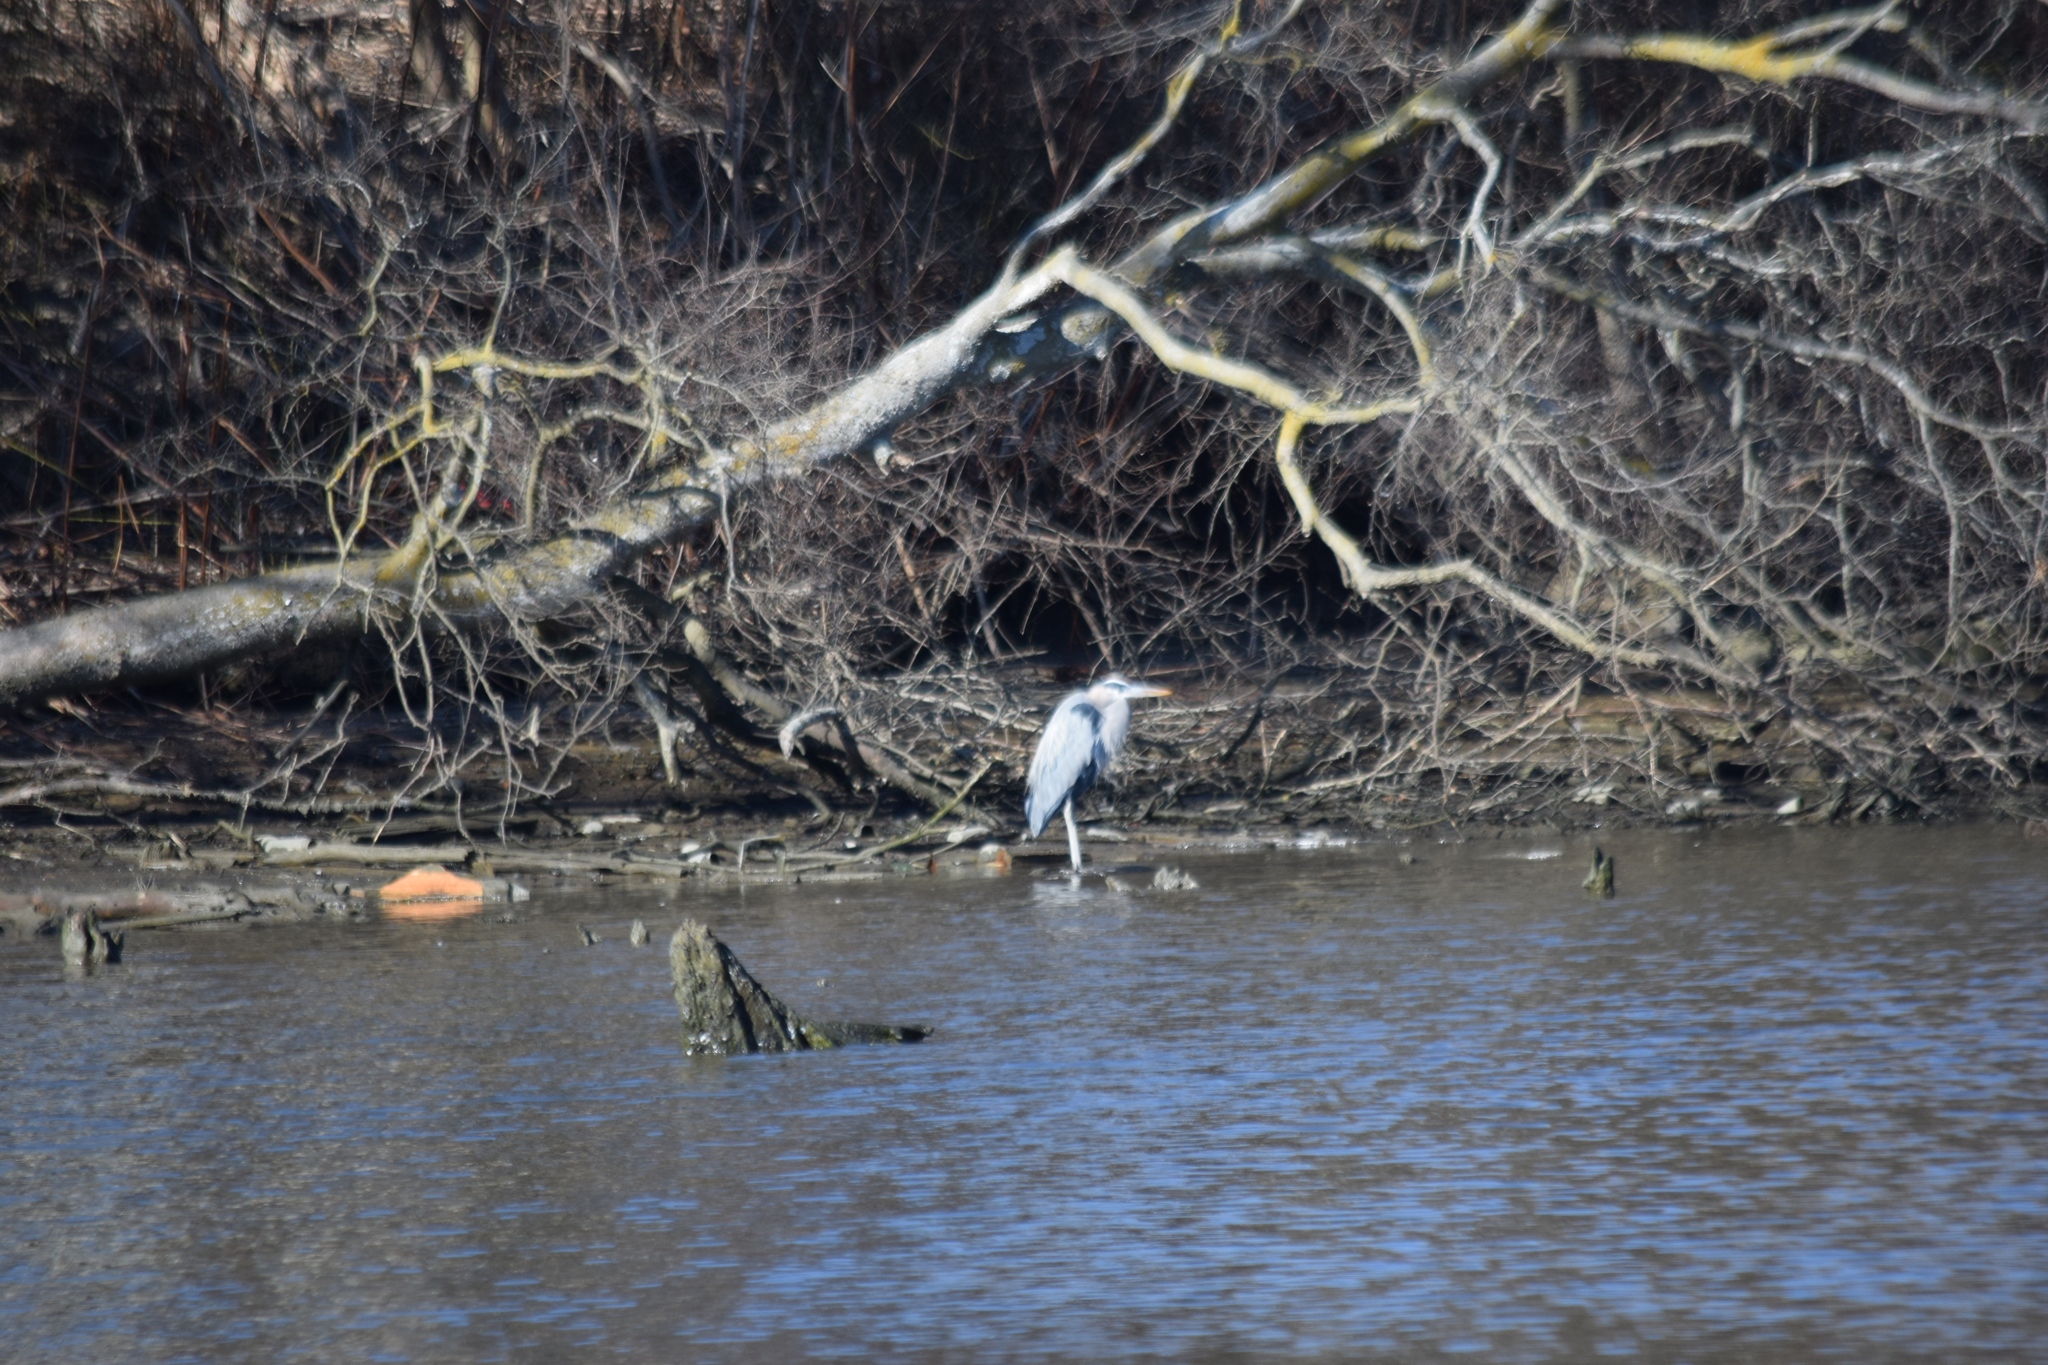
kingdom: Animalia
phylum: Chordata
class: Aves
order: Pelecaniformes
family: Ardeidae
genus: Ardea
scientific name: Ardea herodias
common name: Great blue heron
